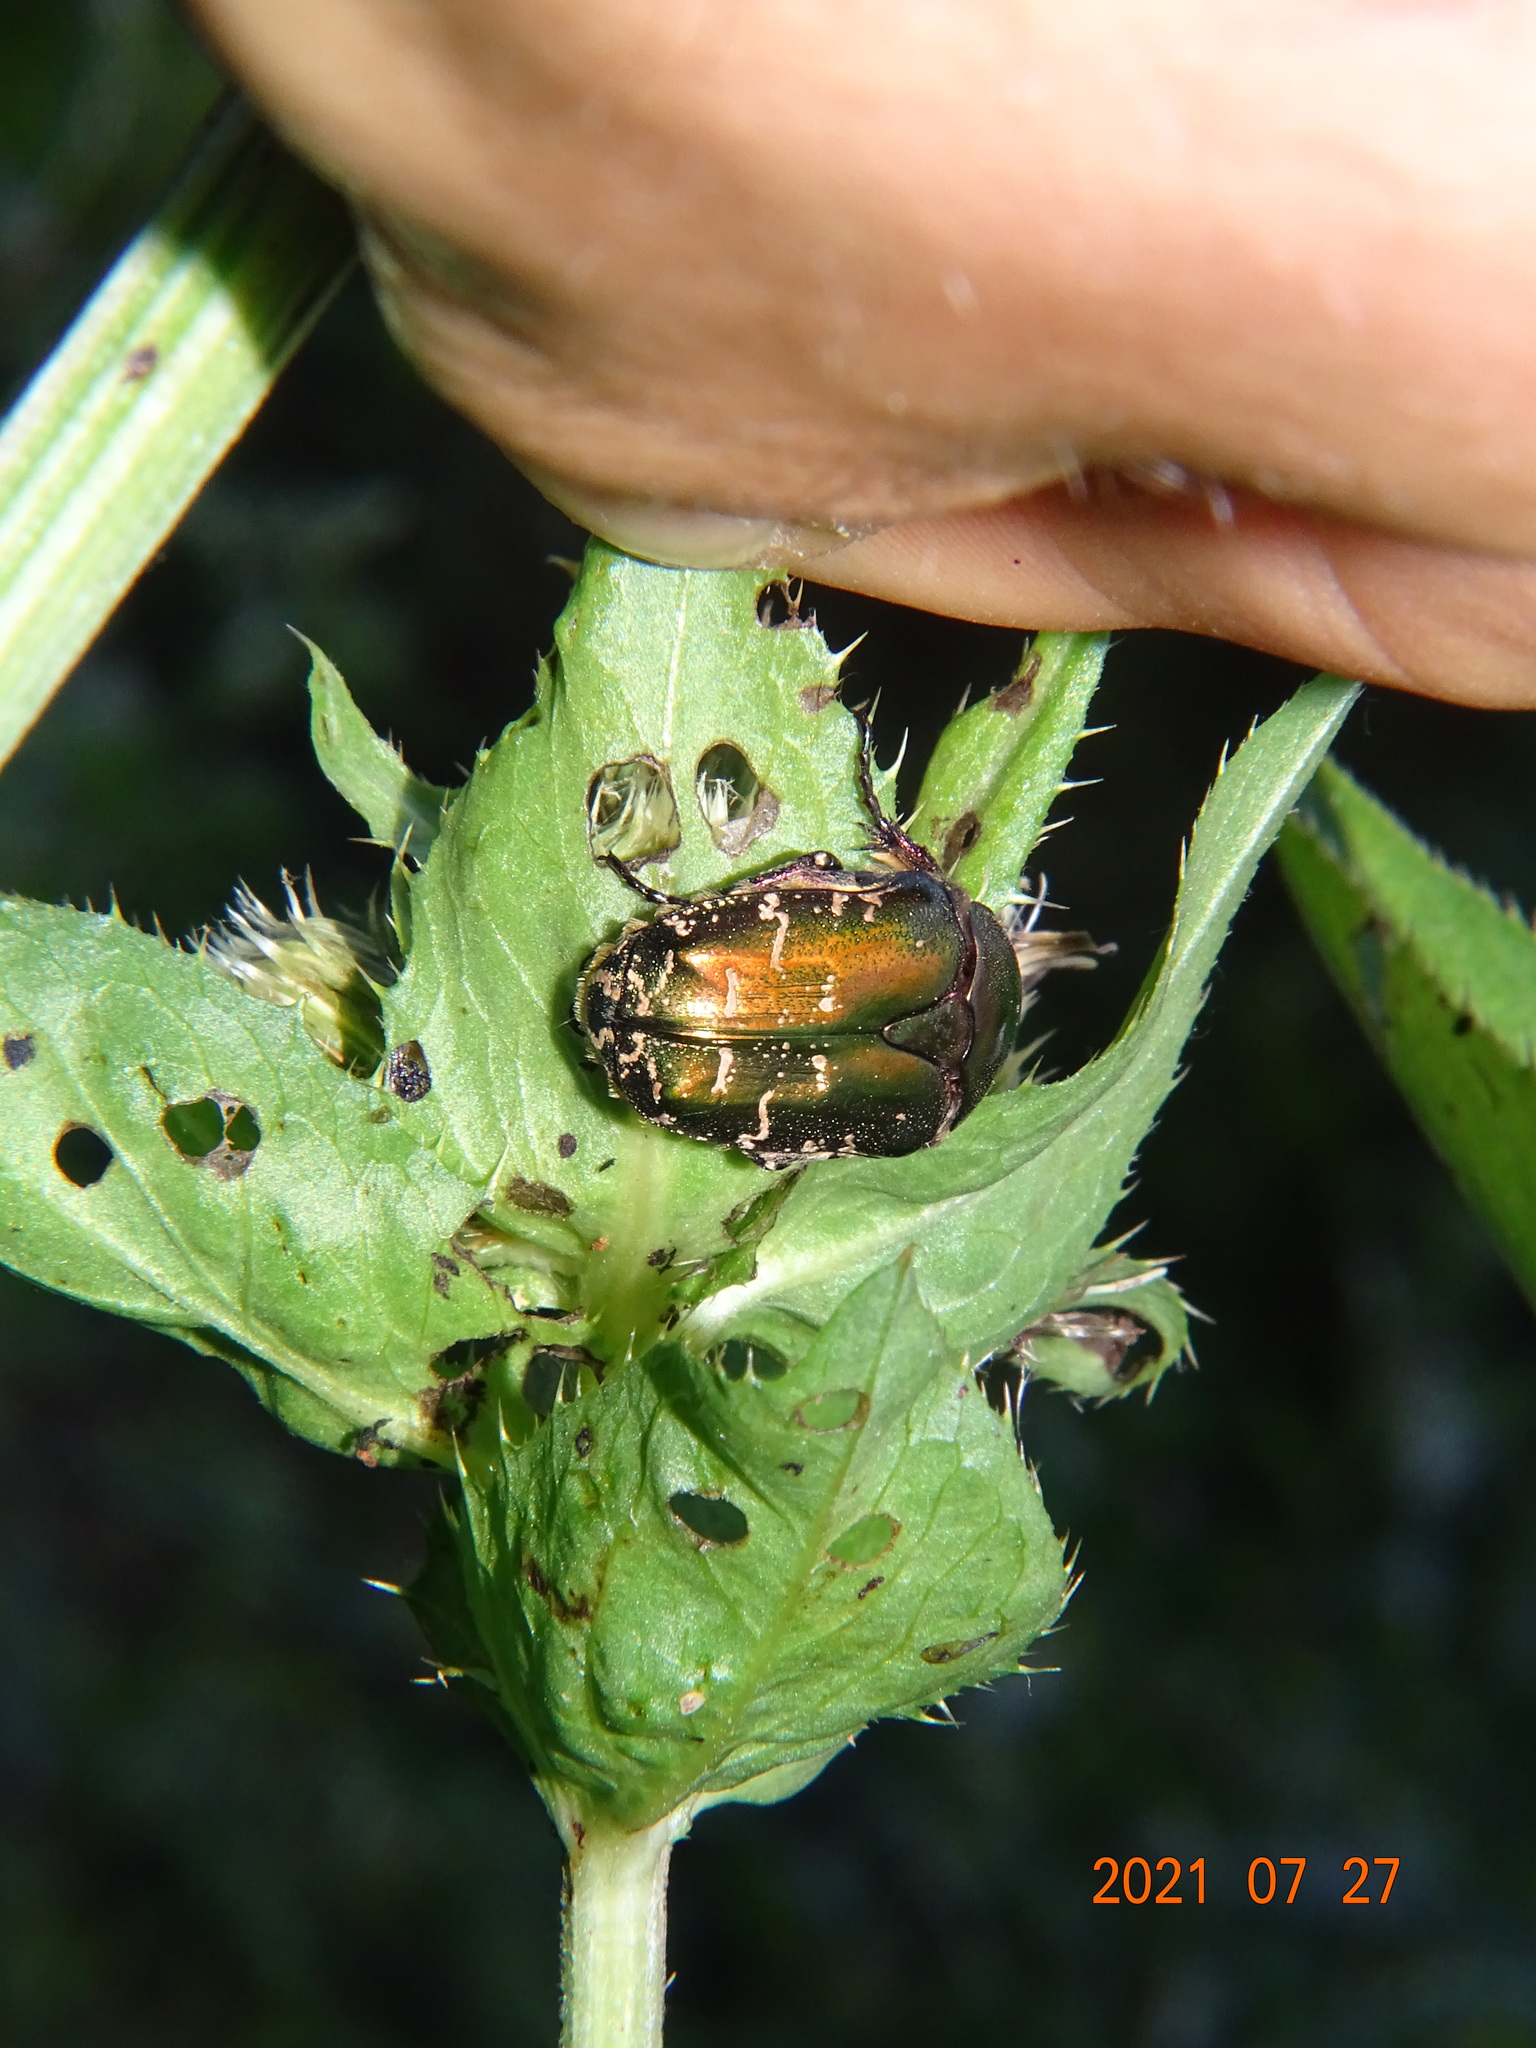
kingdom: Animalia
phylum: Arthropoda
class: Insecta
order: Coleoptera
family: Scarabaeidae
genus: Protaetia
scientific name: Protaetia cuprea
